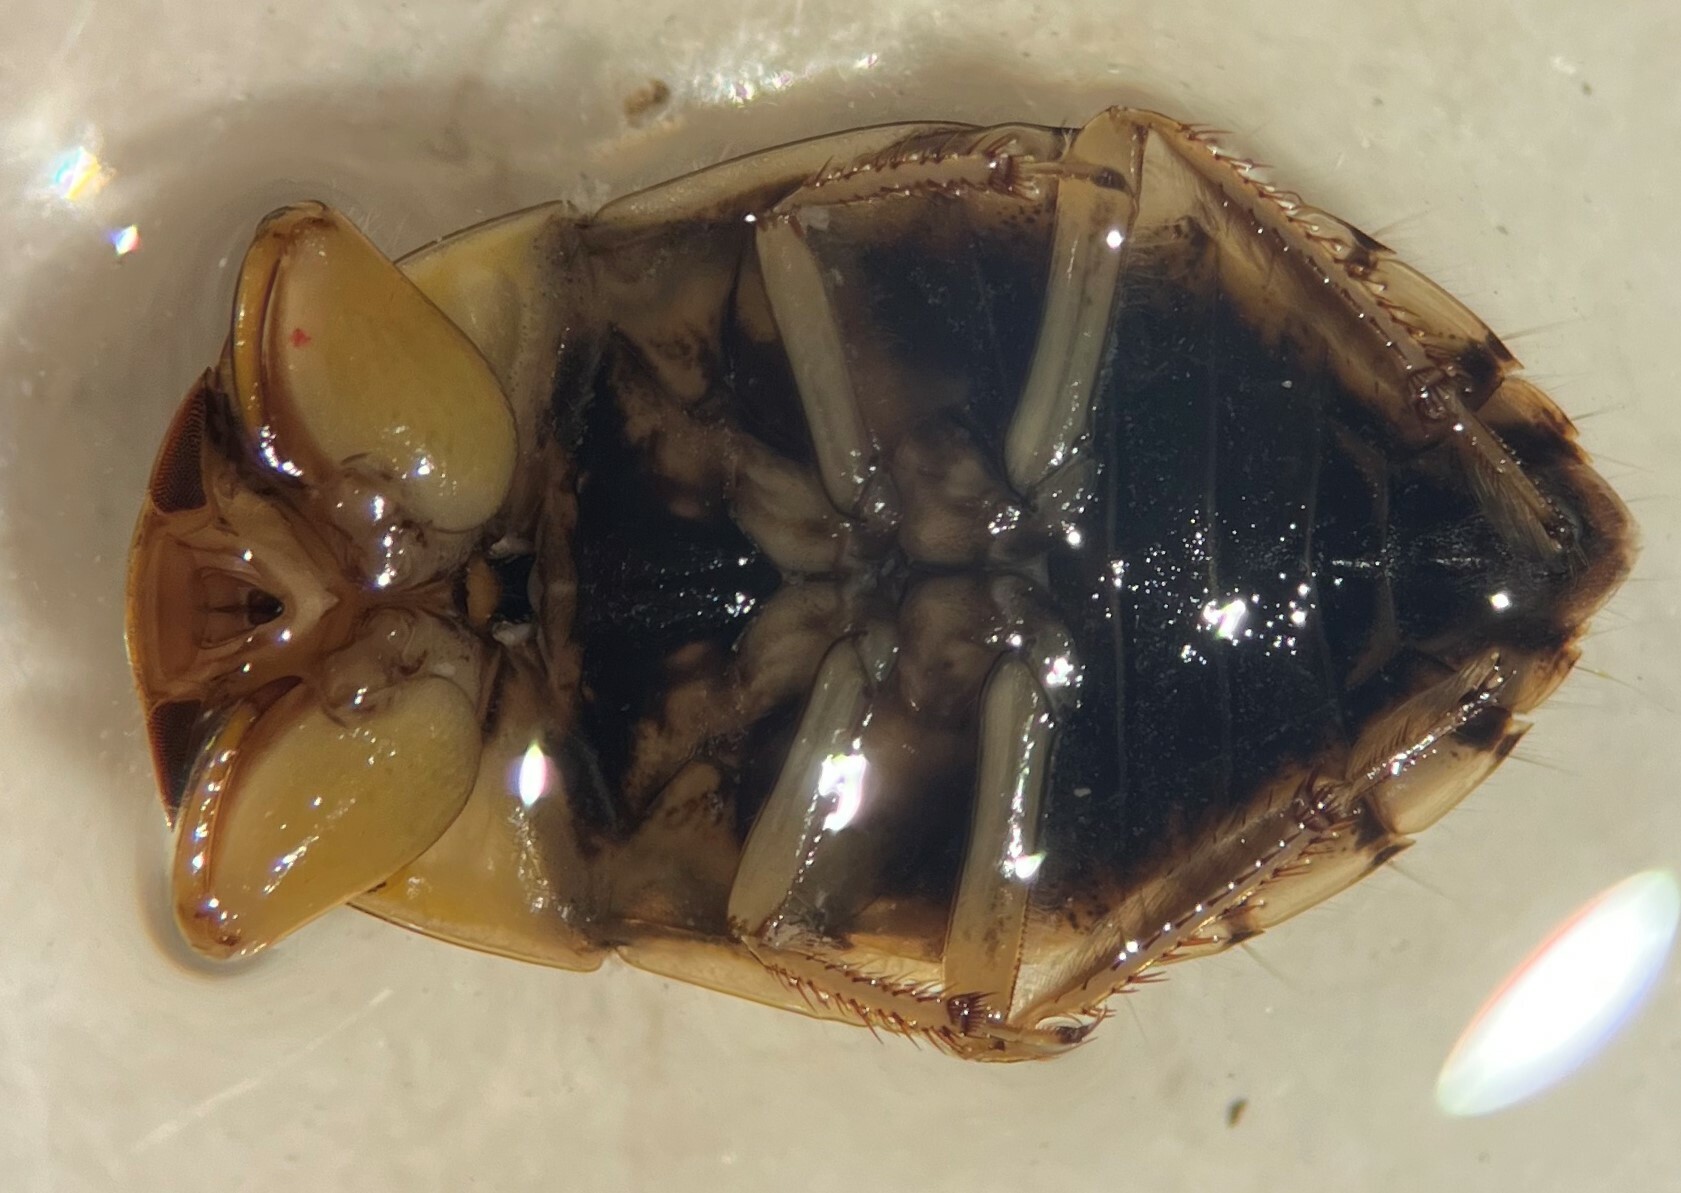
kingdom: Animalia
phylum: Arthropoda
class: Insecta
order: Hemiptera
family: Naucoridae
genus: Pelocoris
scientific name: Pelocoris biimpressus
